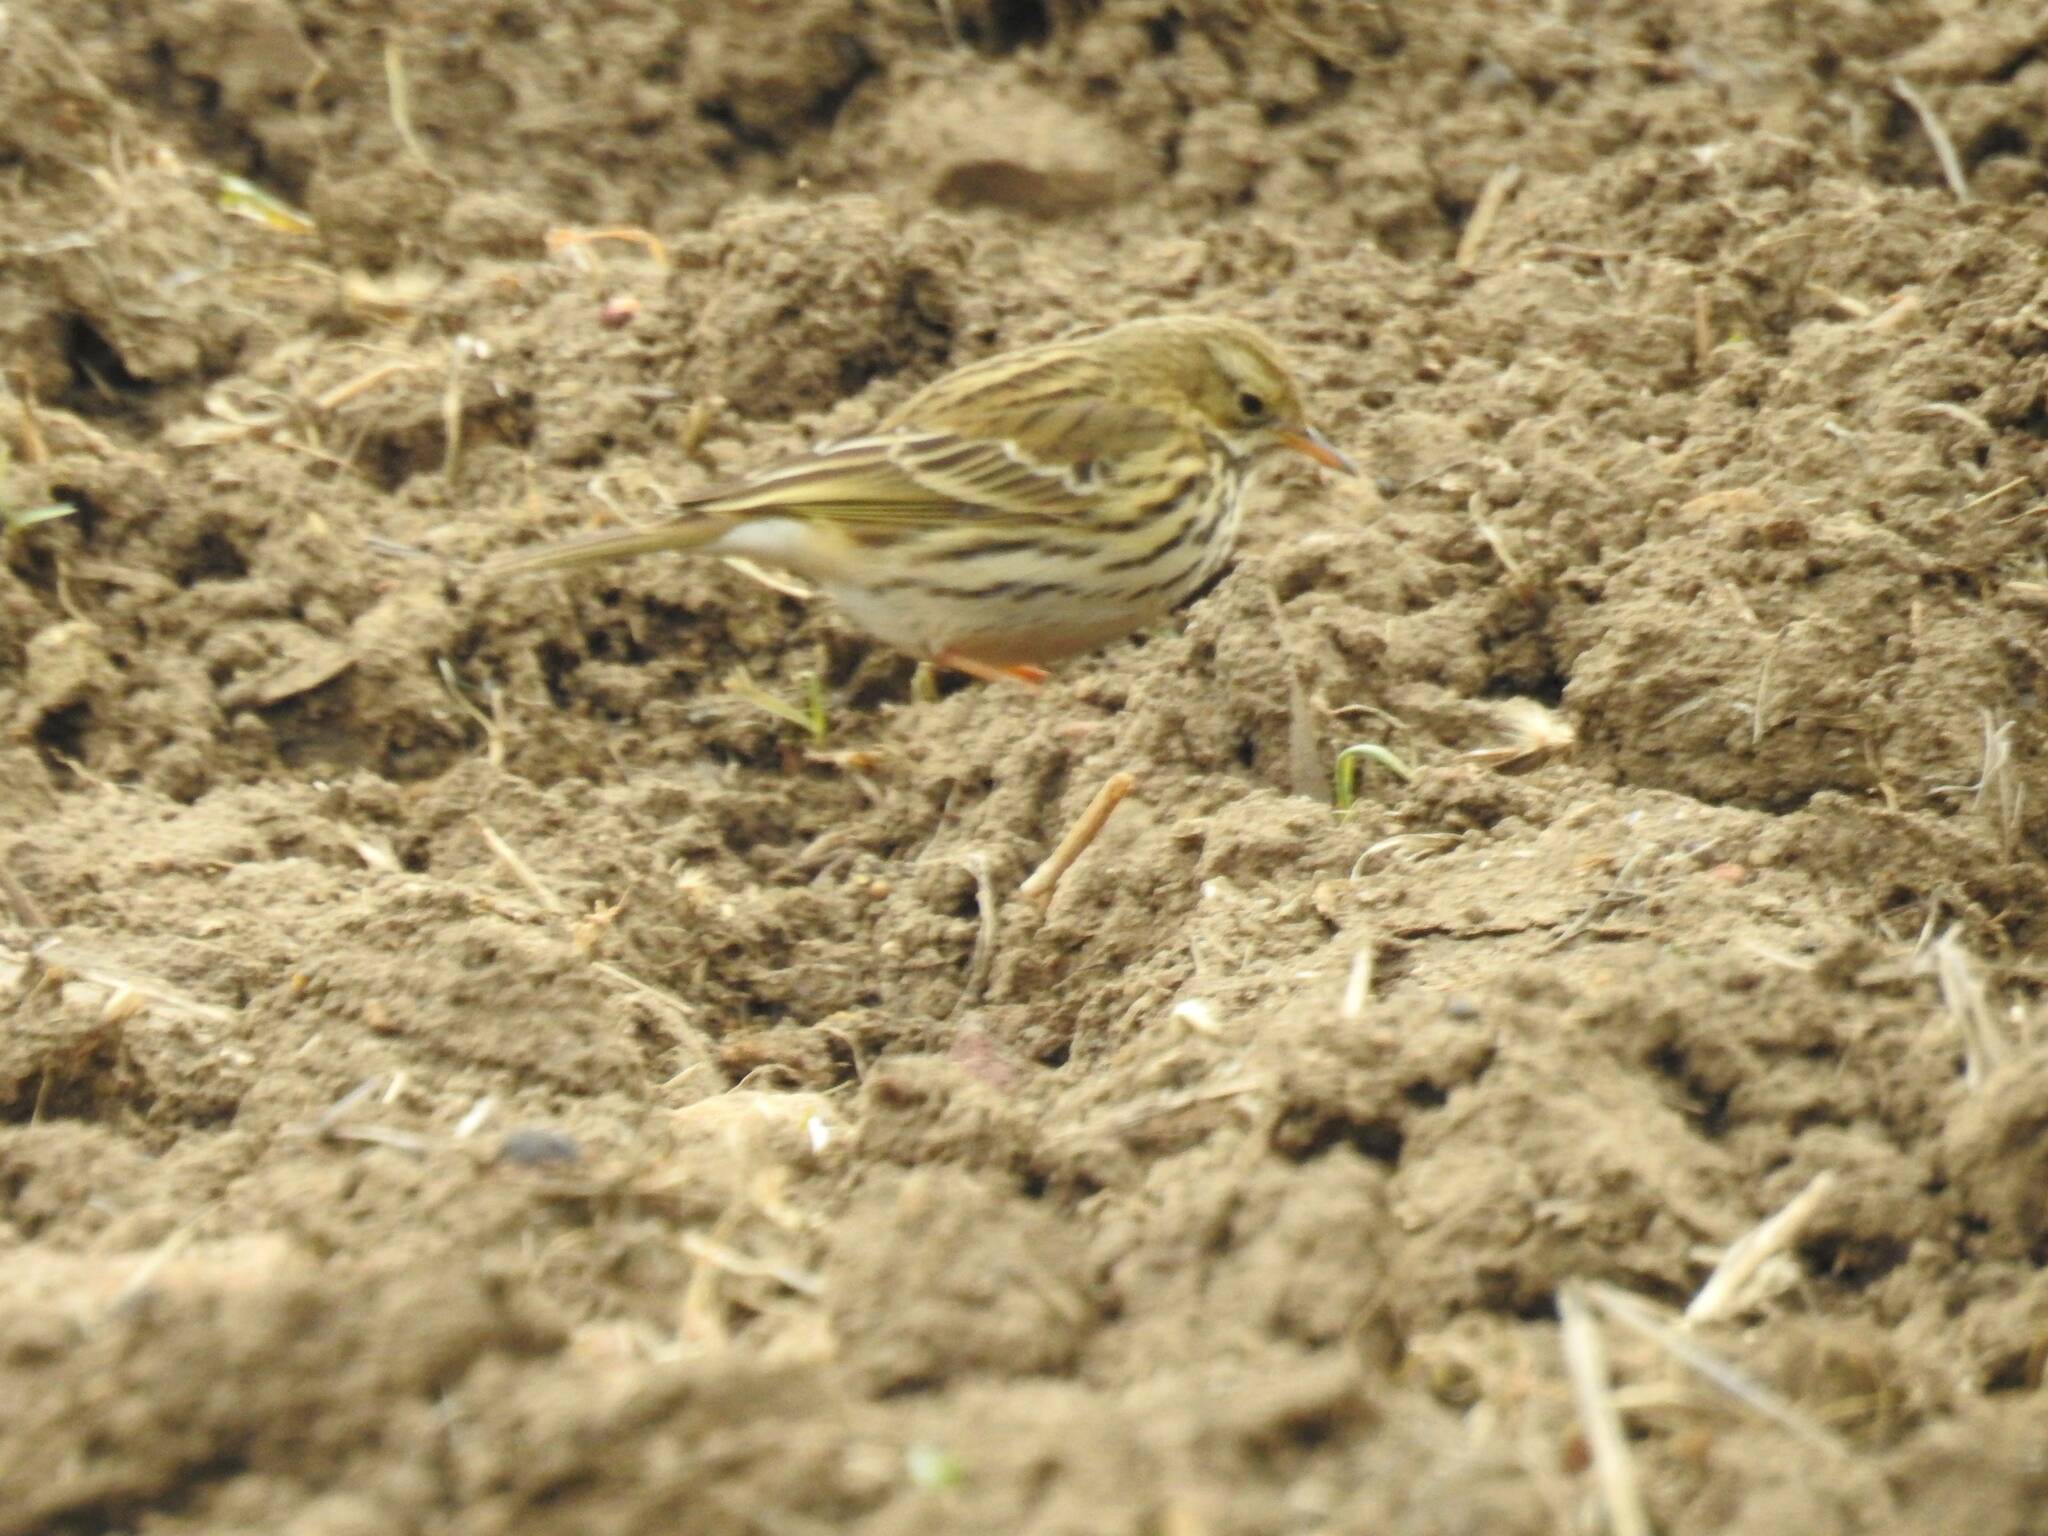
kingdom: Animalia
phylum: Chordata
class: Aves
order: Passeriformes
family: Motacillidae
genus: Anthus
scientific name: Anthus pratensis
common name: Meadow pipit
